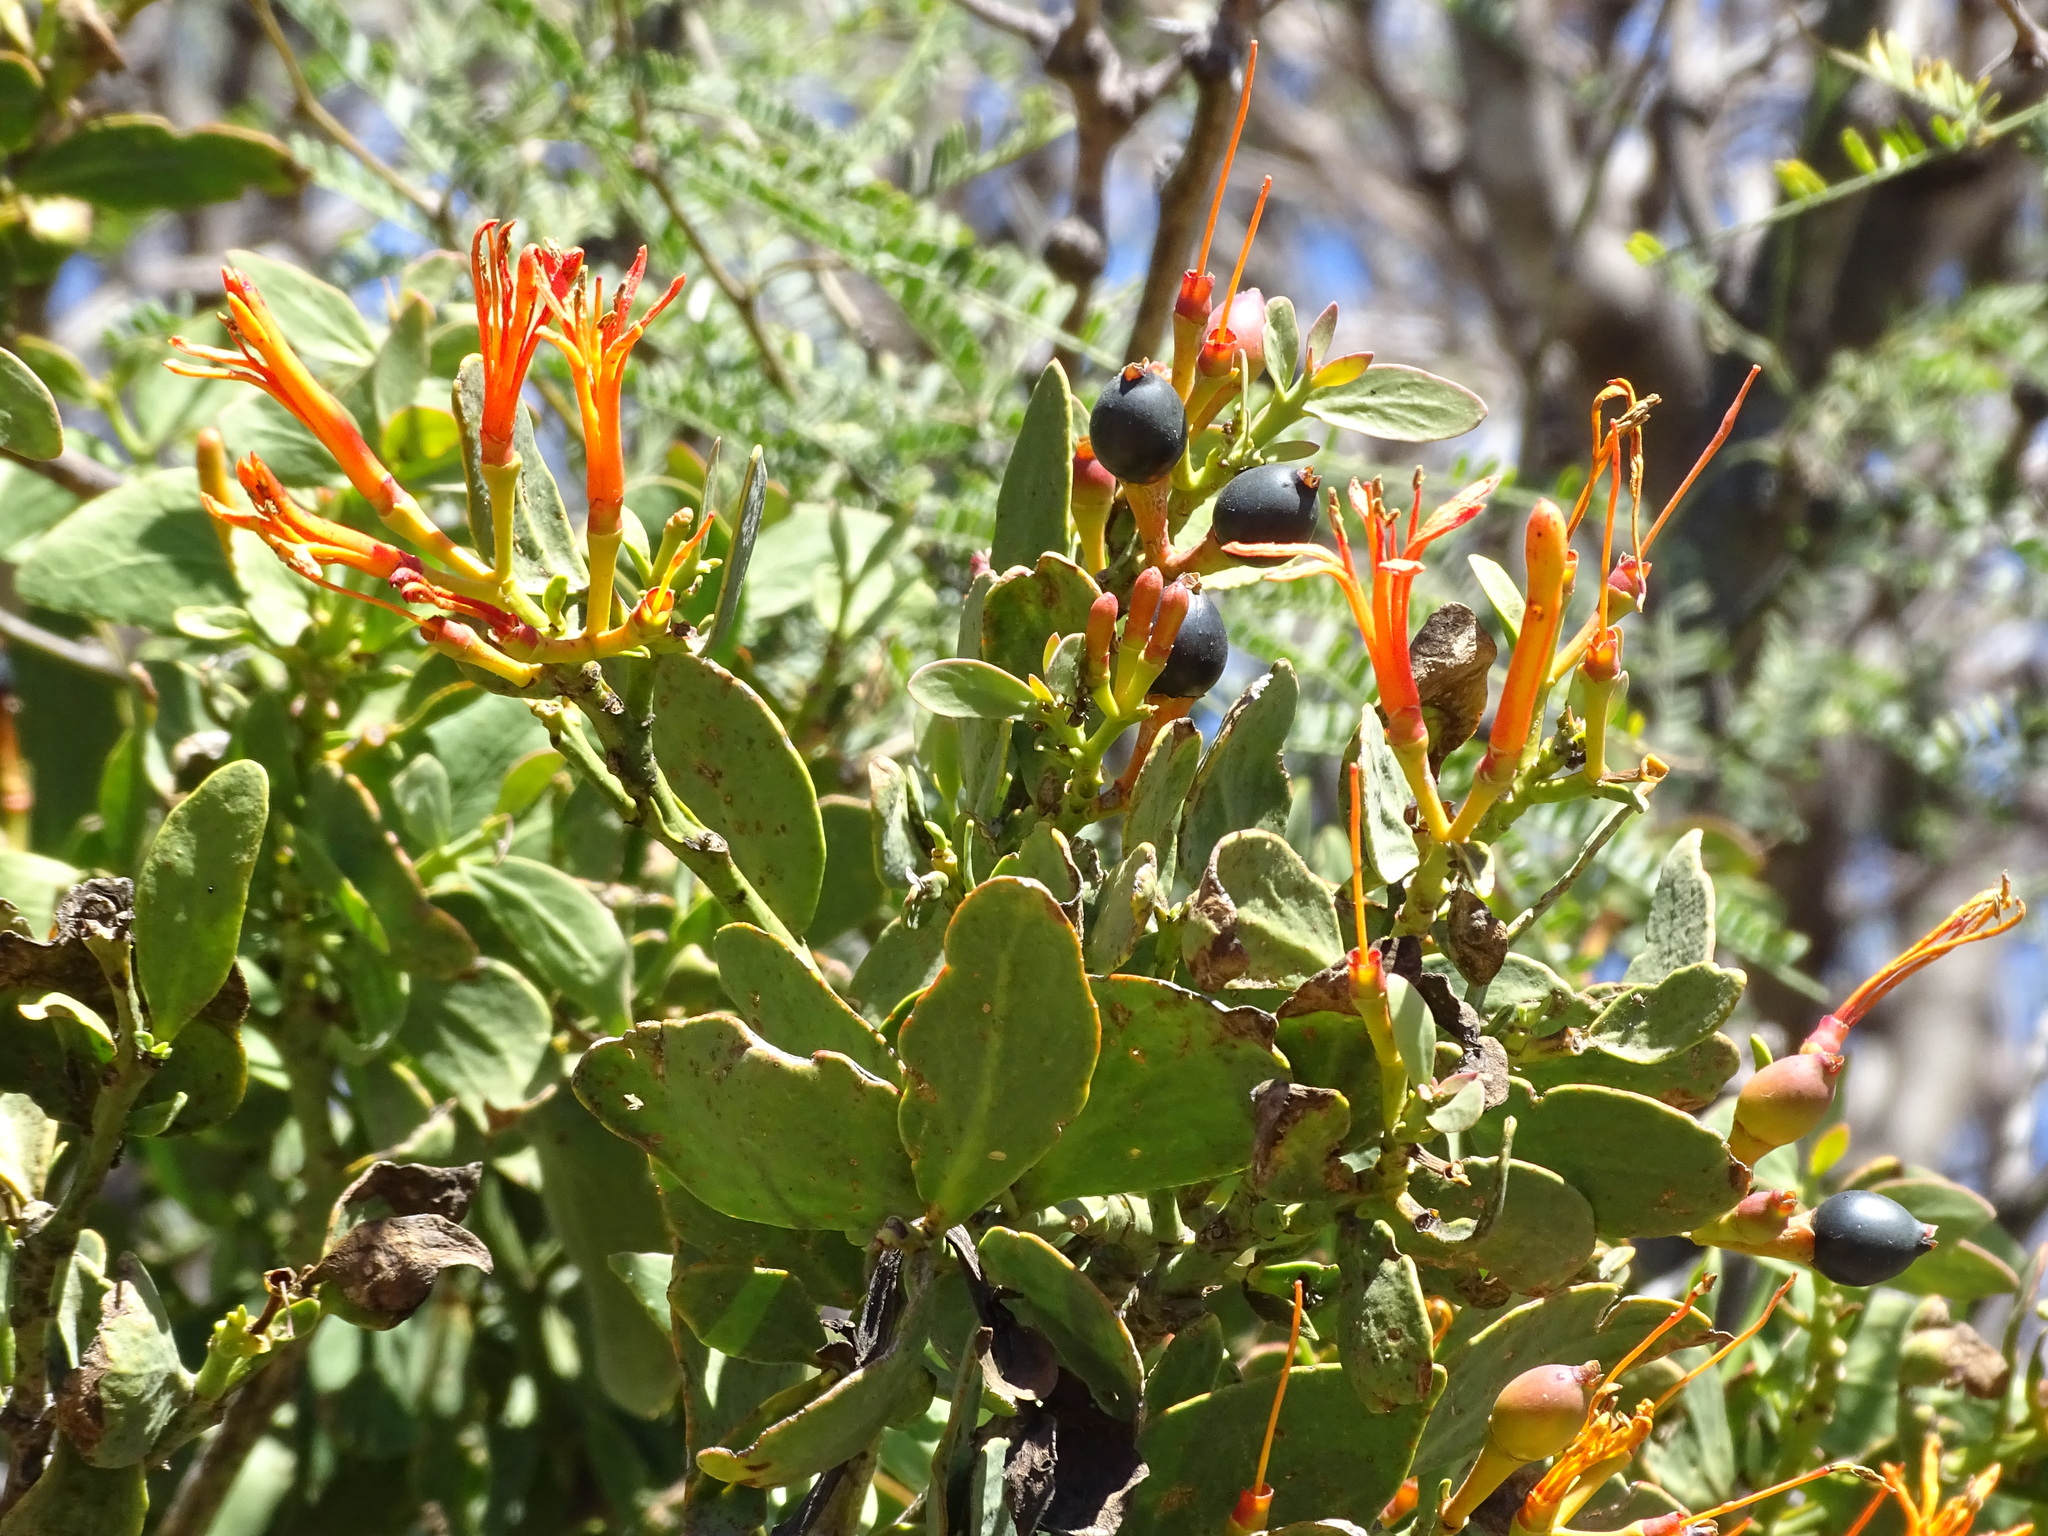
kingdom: Plantae
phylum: Tracheophyta
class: Magnoliopsida
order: Santalales
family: Loranthaceae
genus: Psittacanthus
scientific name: Psittacanthus calyculatus
